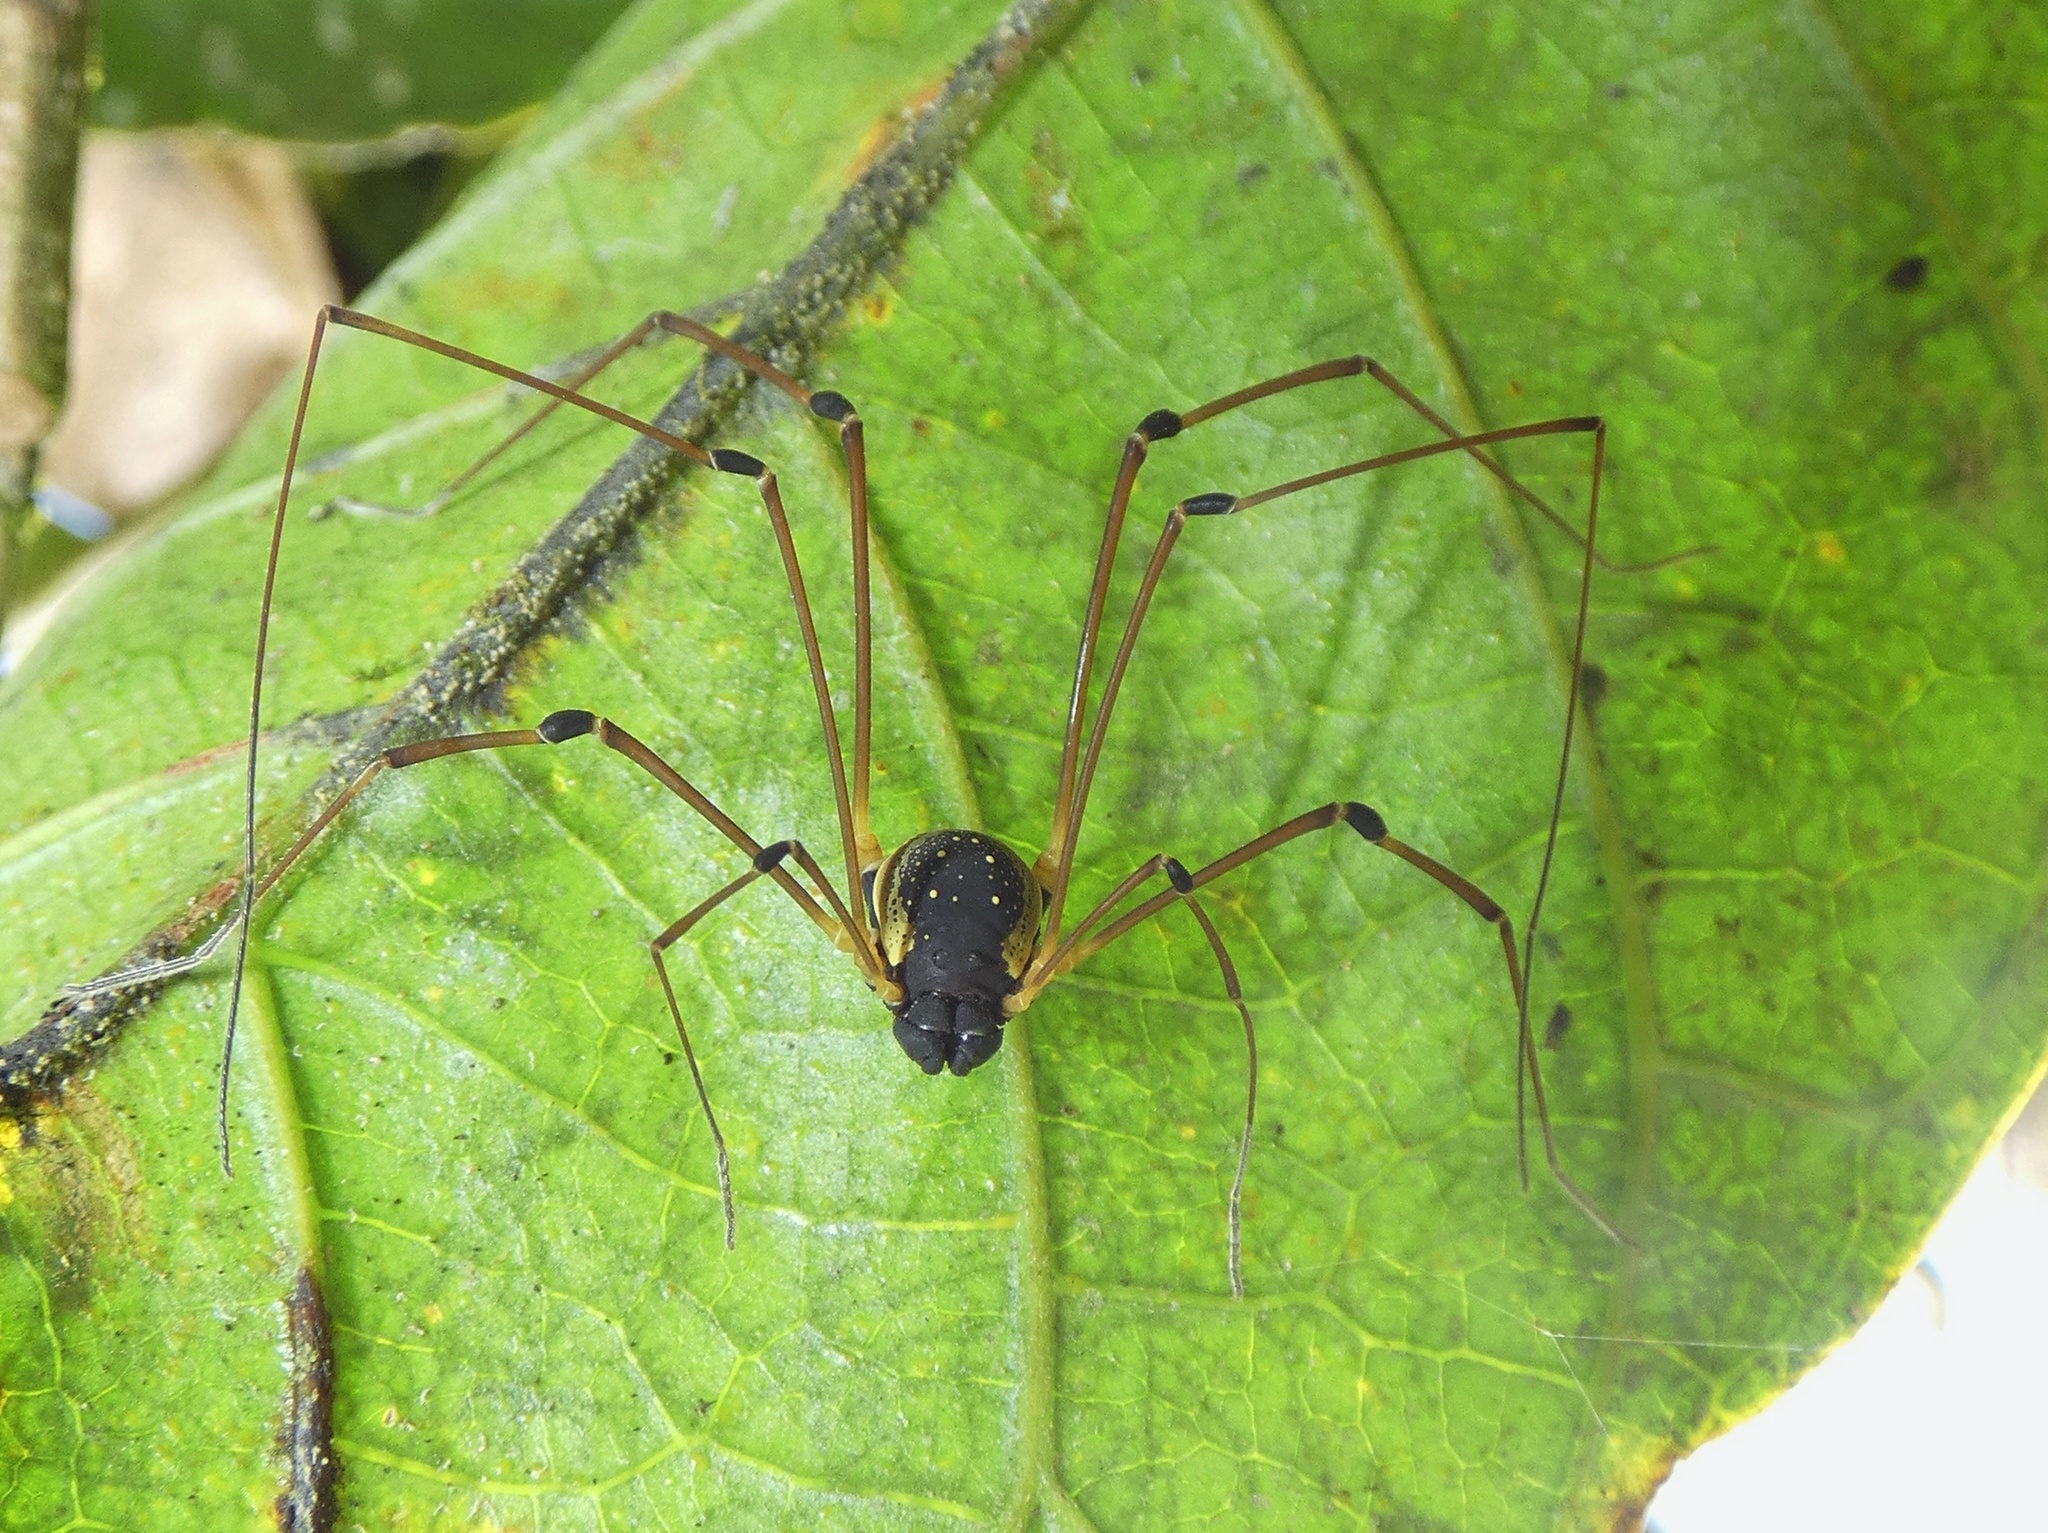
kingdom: Animalia
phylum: Arthropoda
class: Arachnida
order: Opiliones
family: Cosmetidae
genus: Soaresella
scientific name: Soaresella gracilis
